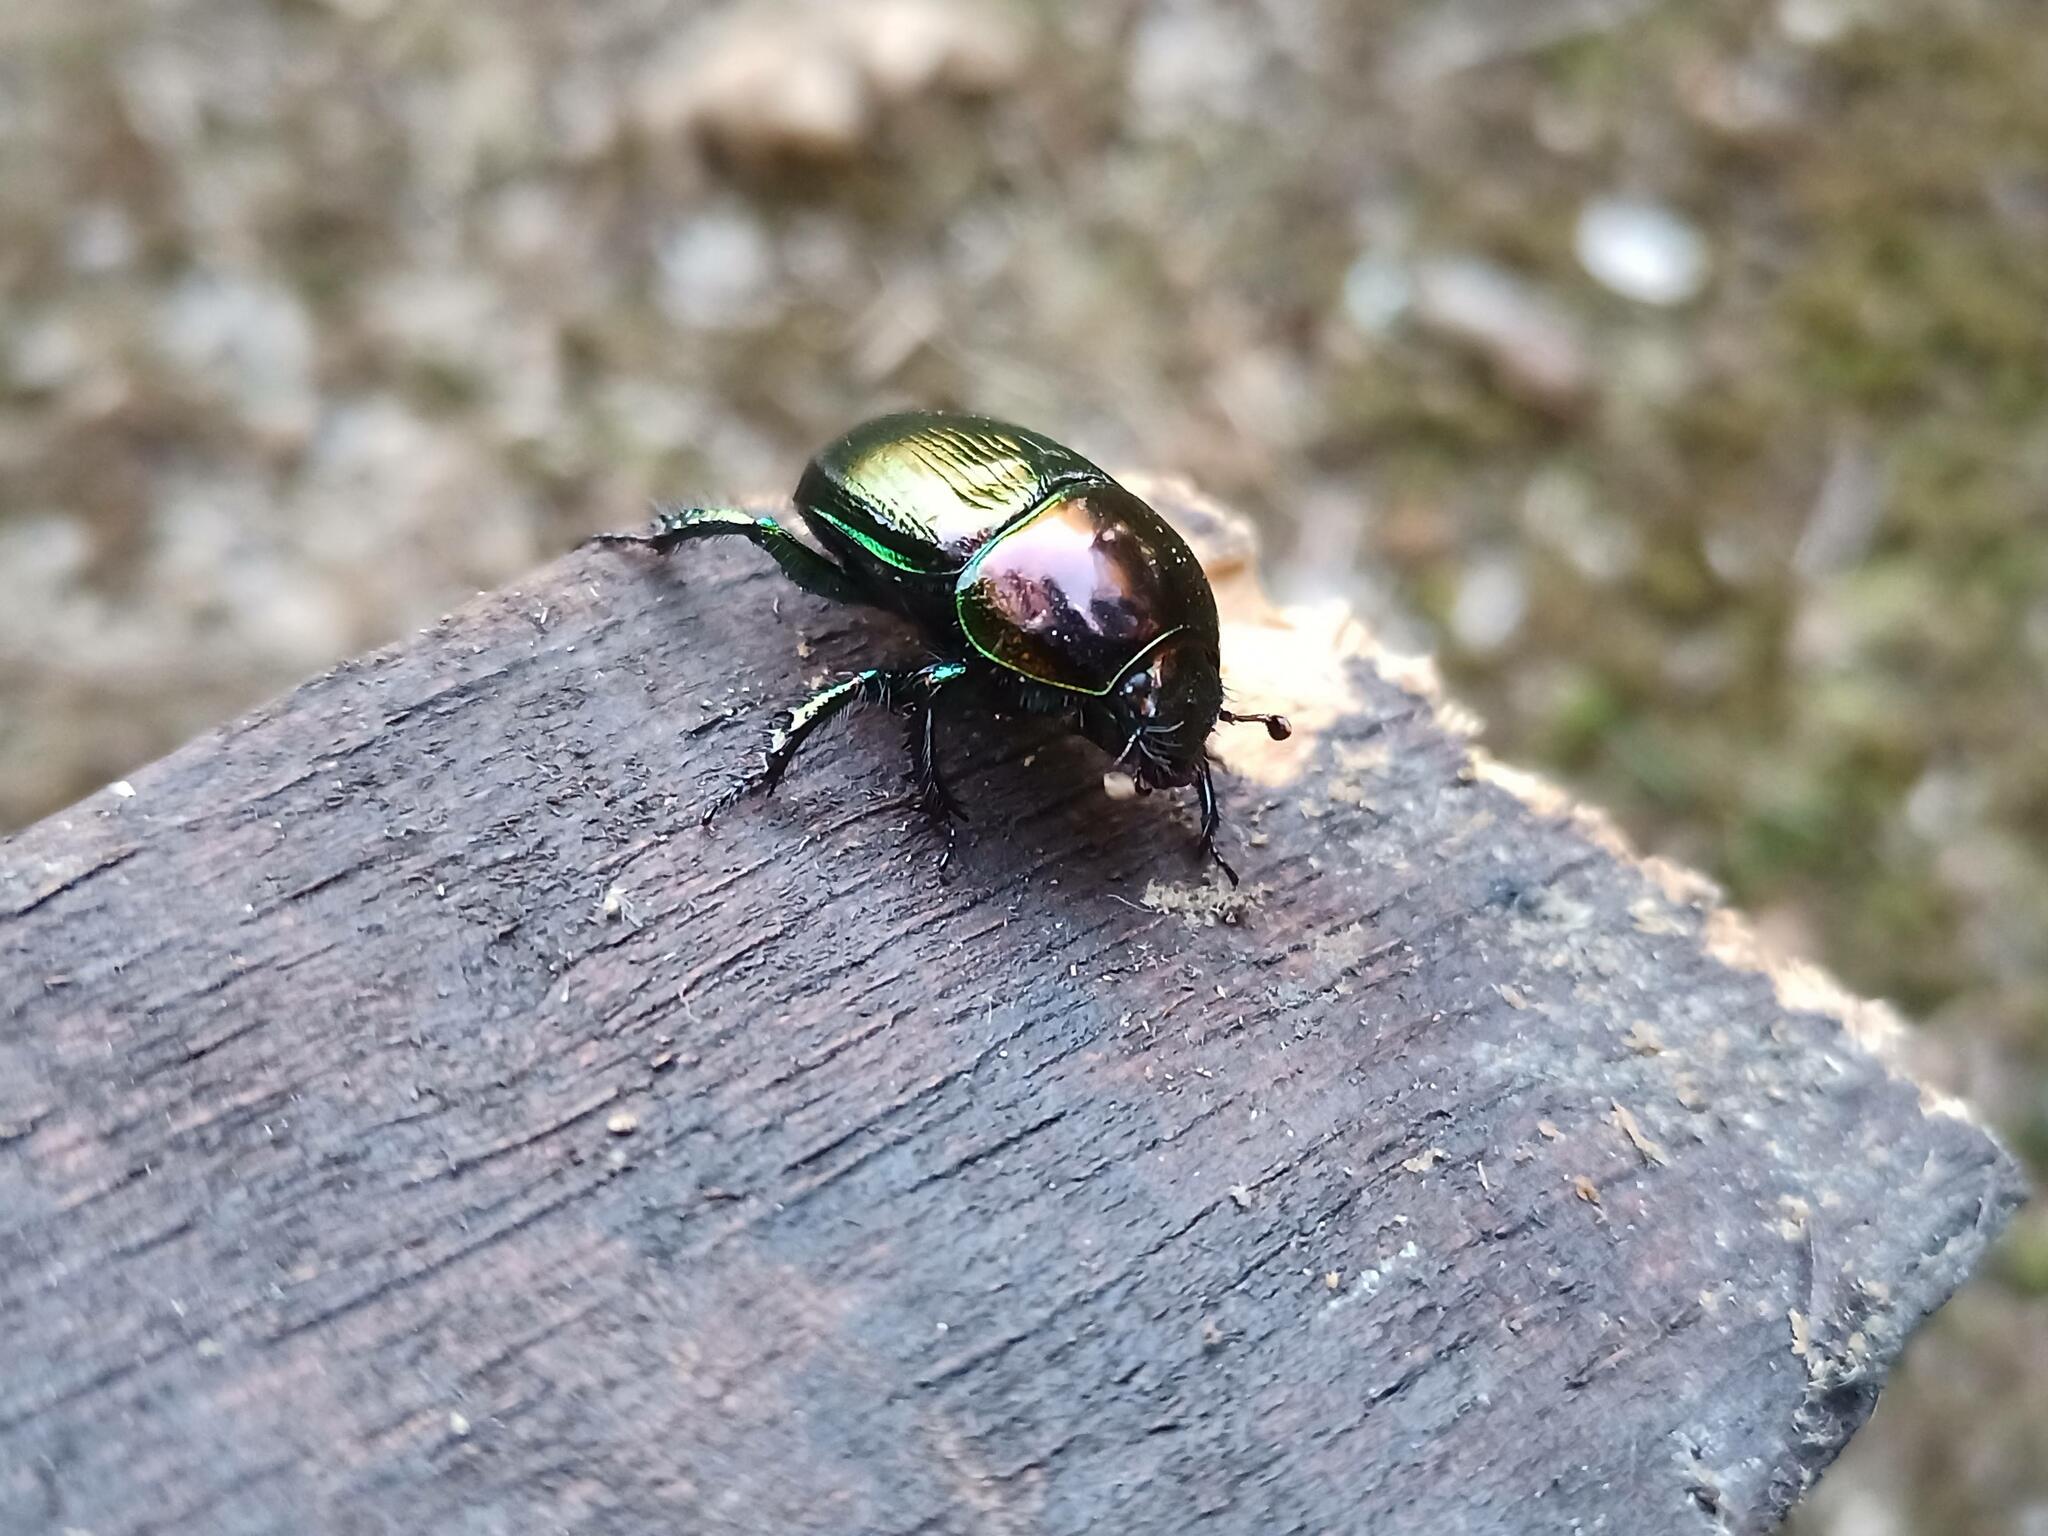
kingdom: Animalia
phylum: Arthropoda
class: Insecta
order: Coleoptera
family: Geotrupidae
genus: Geotrupes
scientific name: Geotrupes mutator
